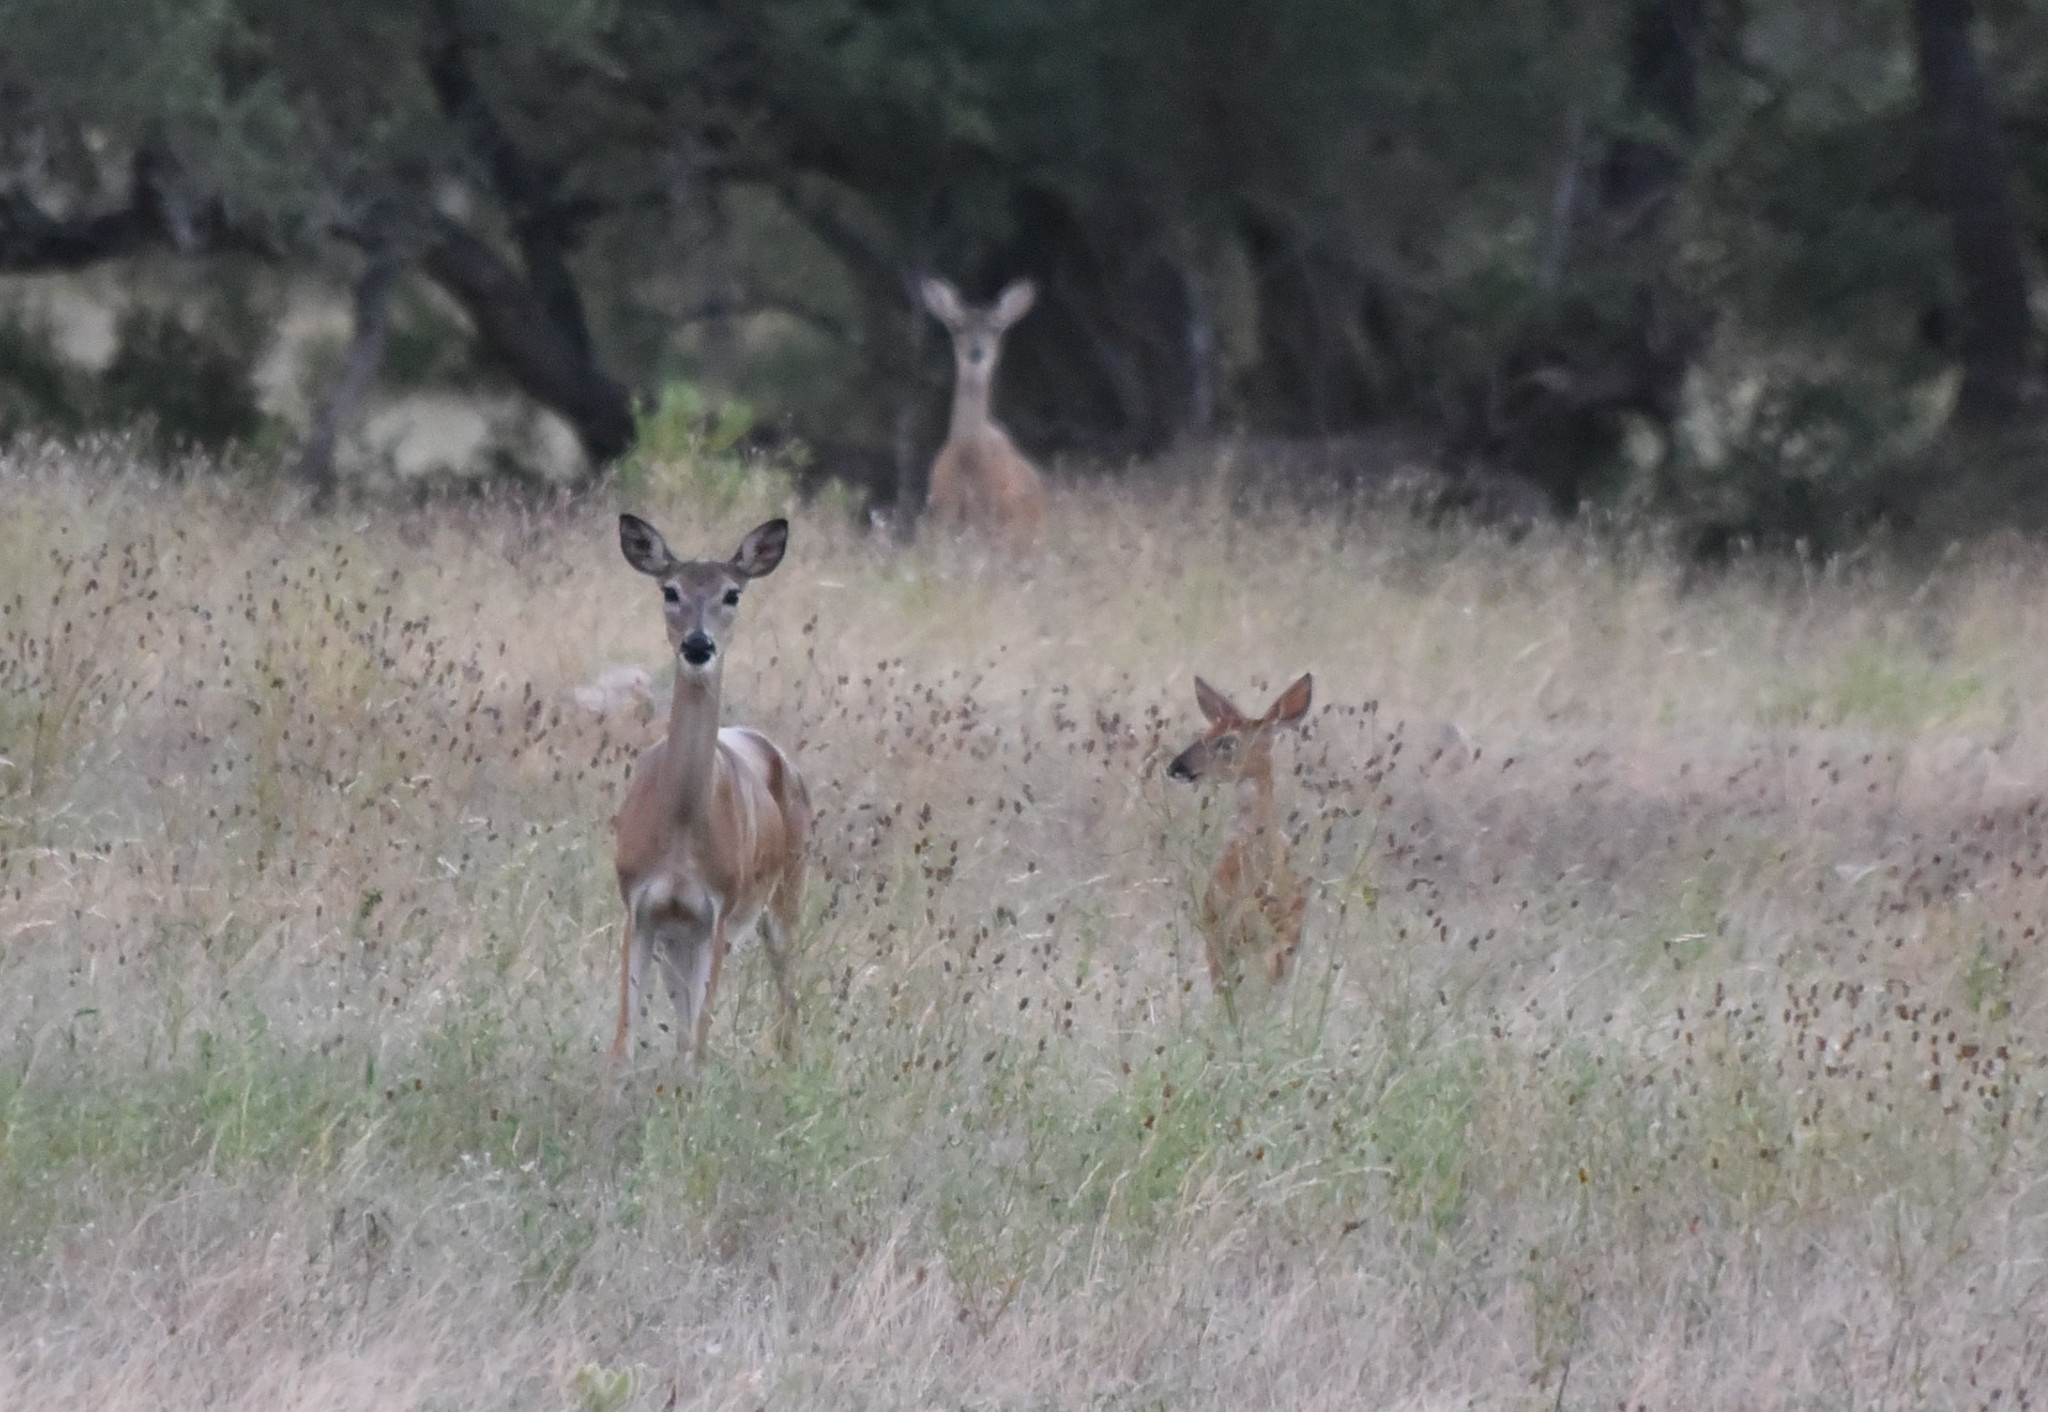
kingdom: Animalia
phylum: Chordata
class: Mammalia
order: Artiodactyla
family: Cervidae
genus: Odocoileus
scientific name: Odocoileus virginianus
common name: White-tailed deer
